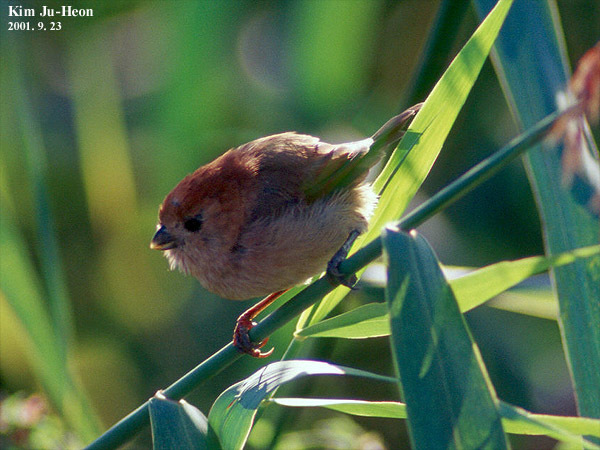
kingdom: Animalia
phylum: Chordata
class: Aves
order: Passeriformes
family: Sylviidae
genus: Sinosuthora
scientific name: Sinosuthora webbiana
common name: Vinous-throated parrotbill
